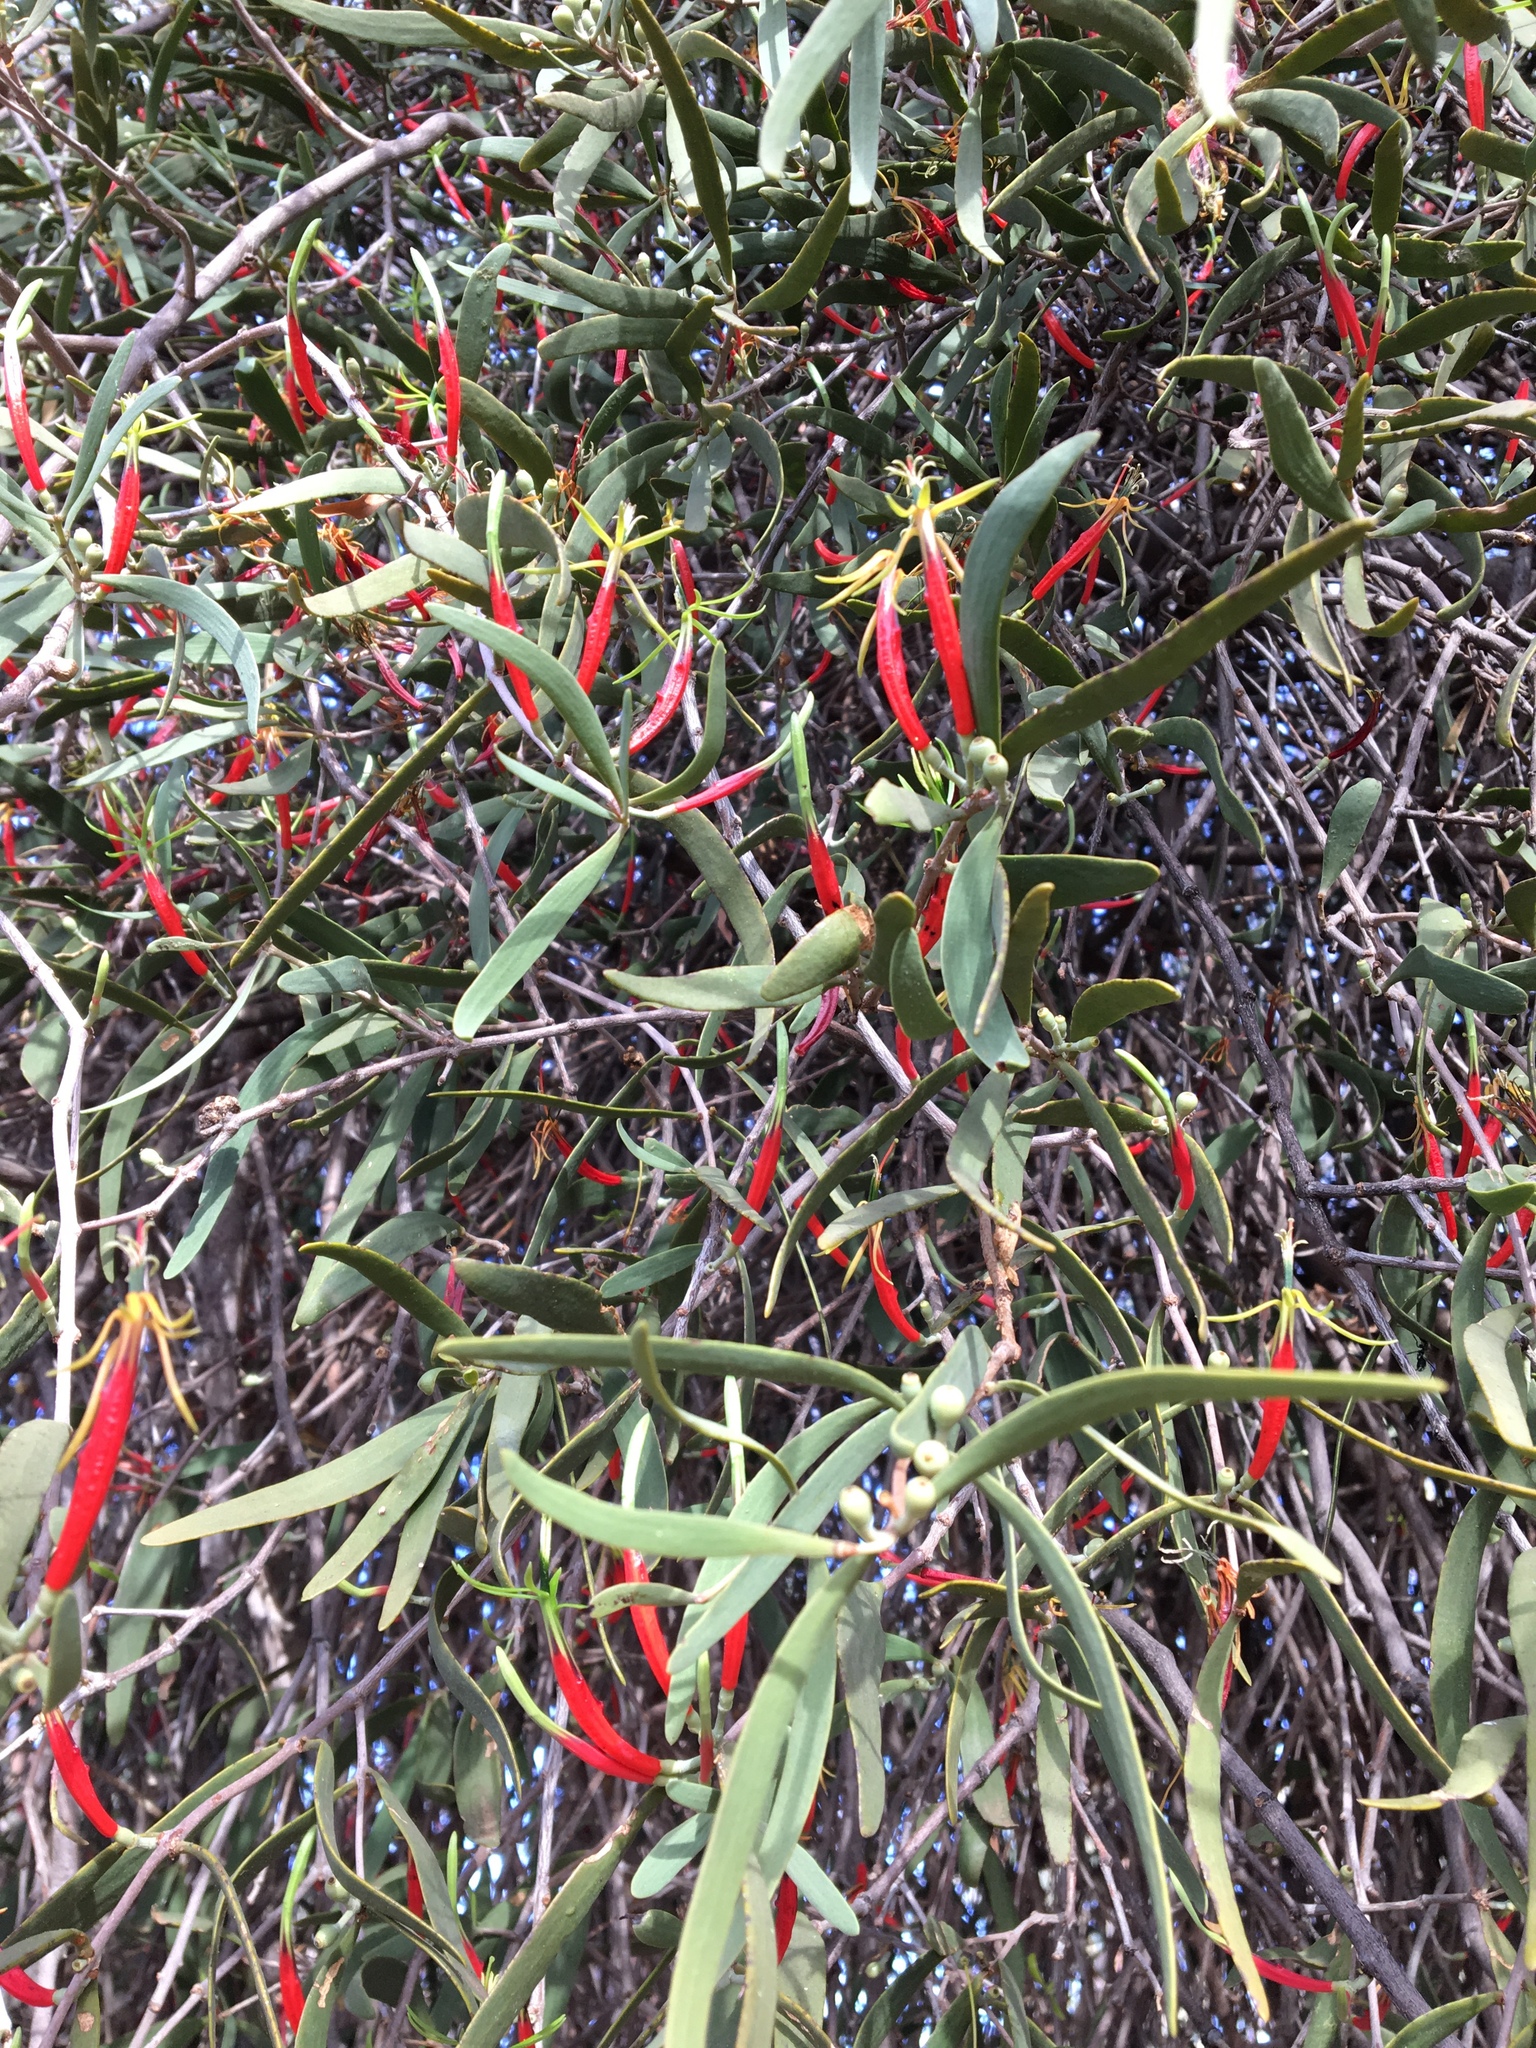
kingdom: Plantae
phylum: Tracheophyta
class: Magnoliopsida
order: Santalales
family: Loranthaceae
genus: Lysiana
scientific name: Lysiana exocarpi
